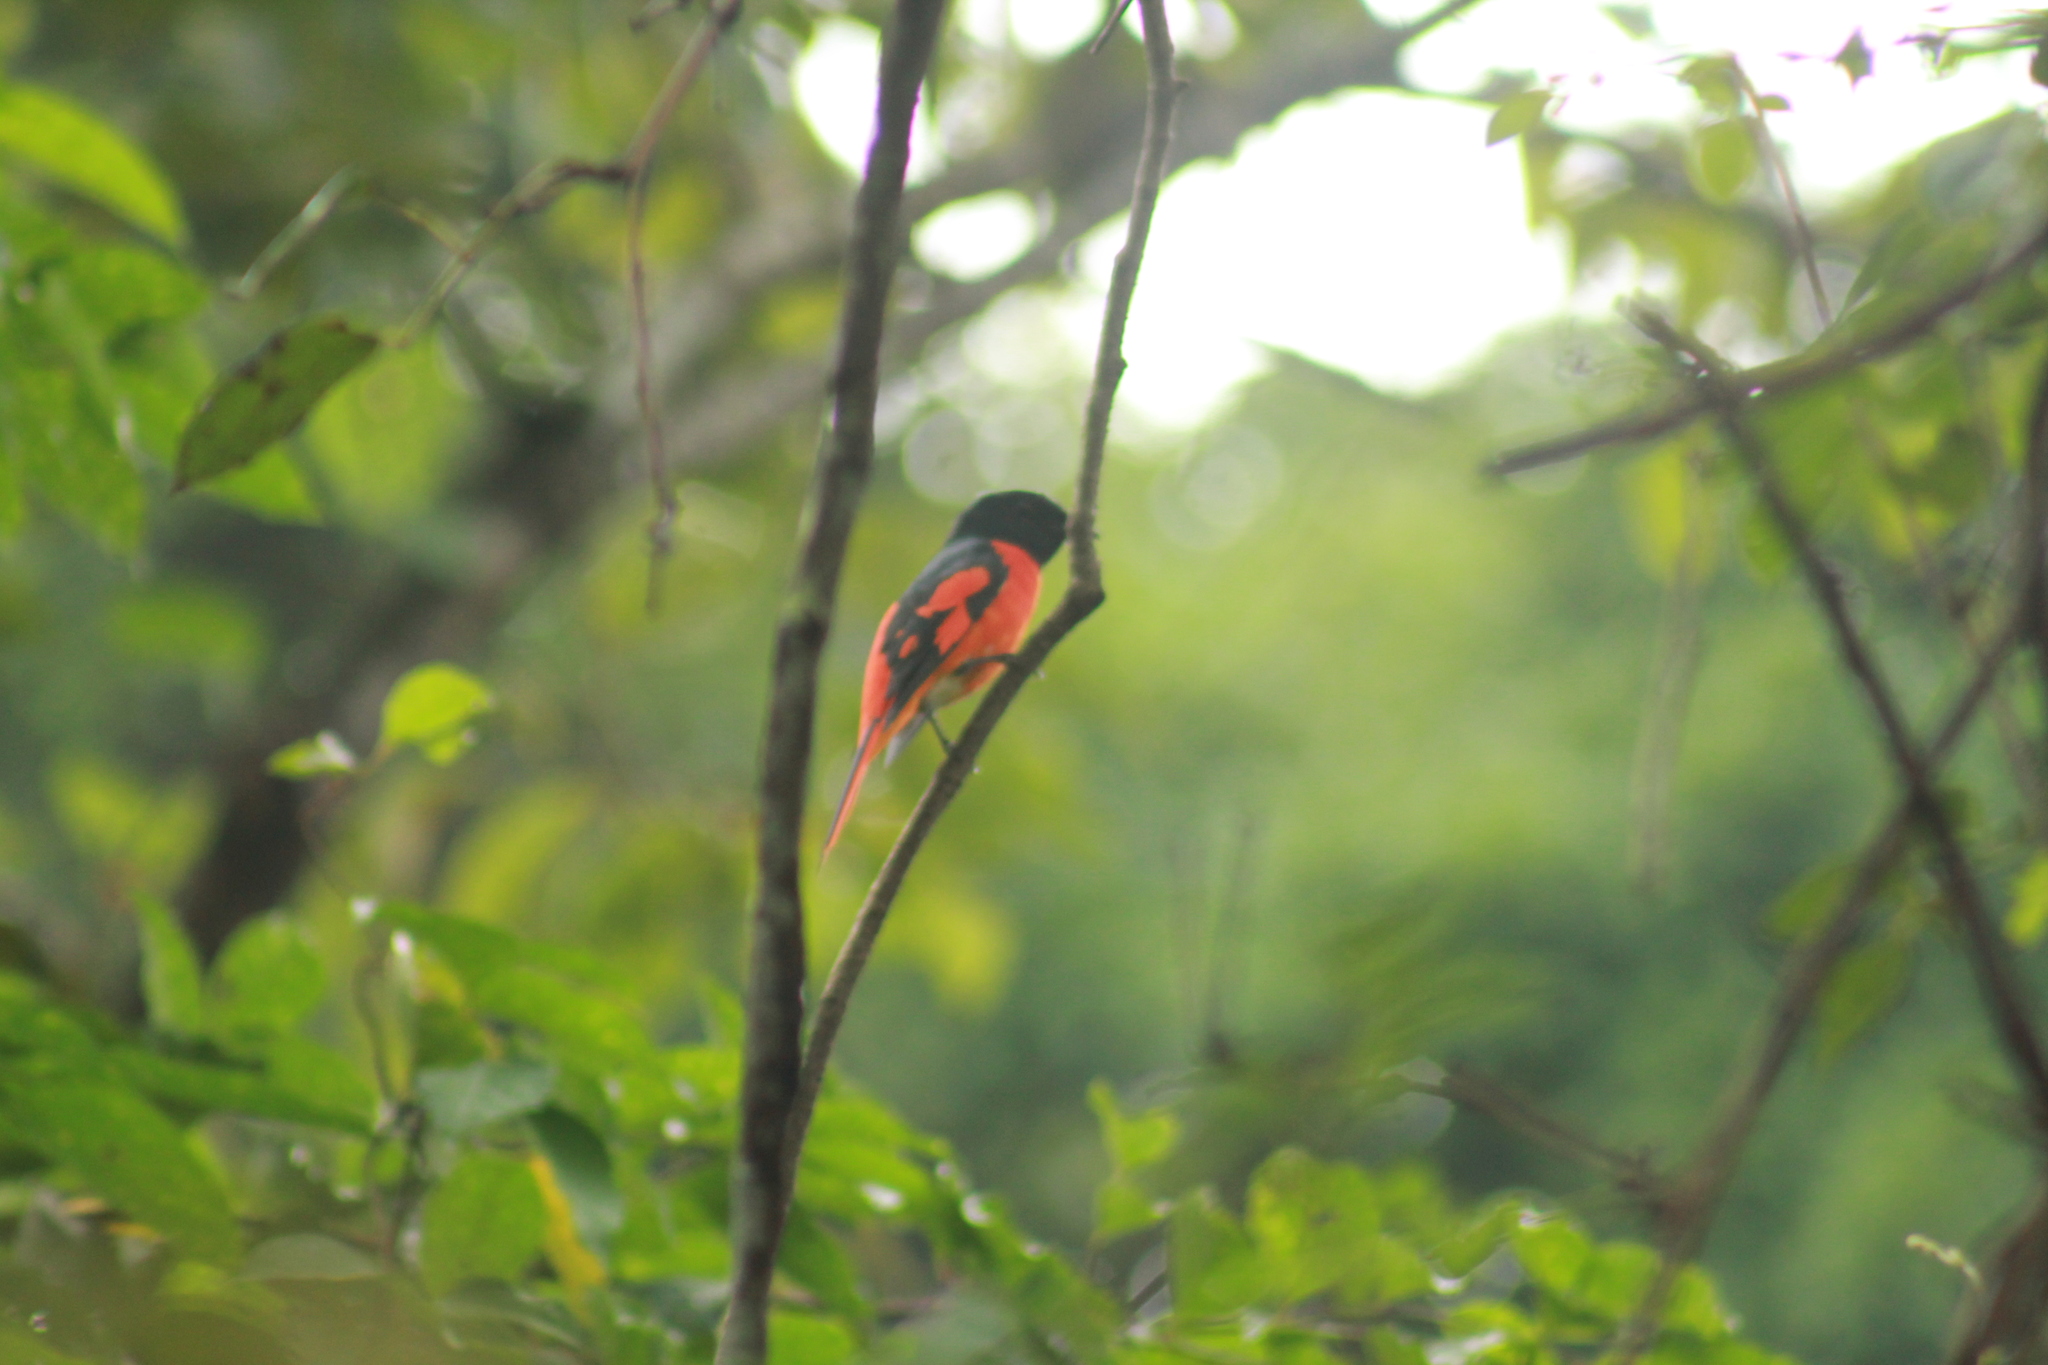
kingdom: Animalia
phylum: Chordata
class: Aves
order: Passeriformes
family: Campephagidae
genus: Pericrocotus
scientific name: Pericrocotus speciosus
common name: Scarlet minivet
